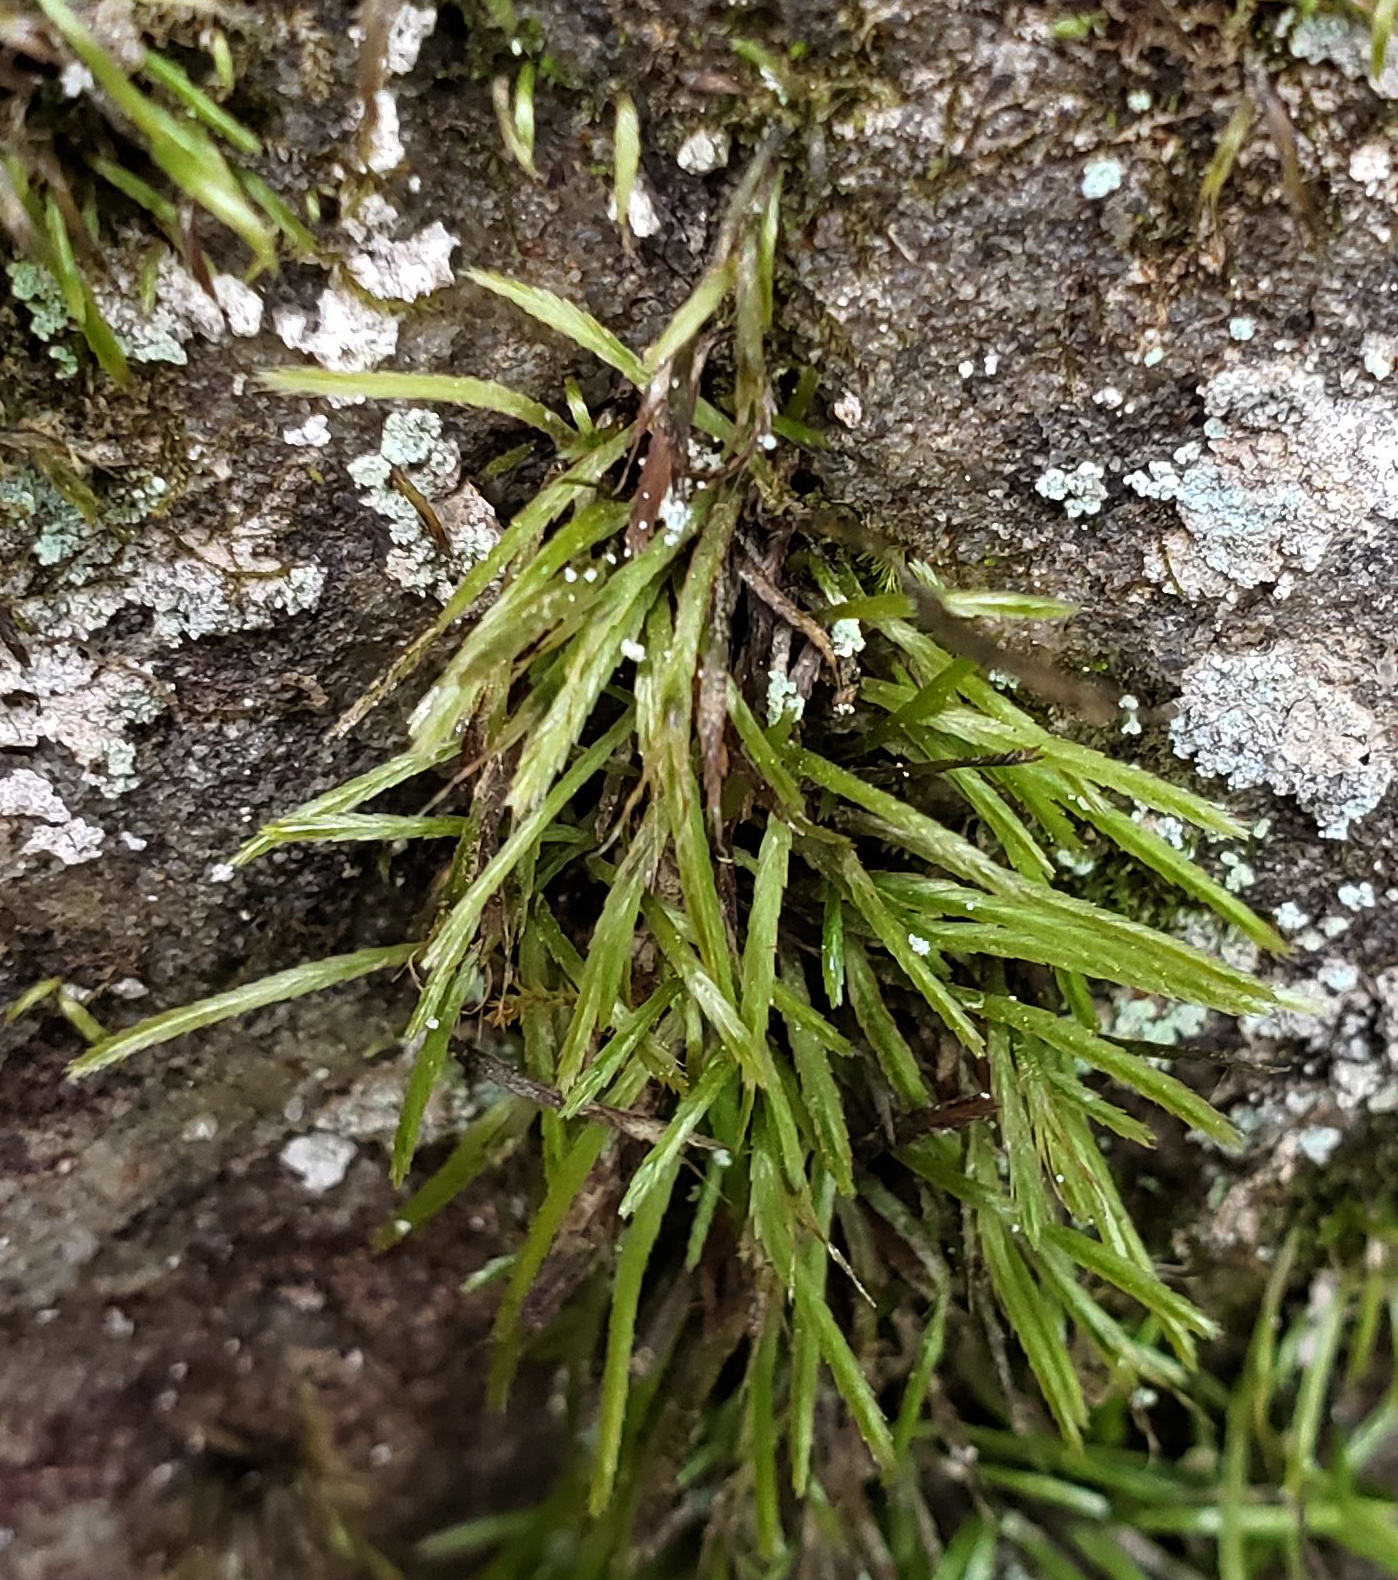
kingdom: Plantae
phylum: Bryophyta
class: Bryopsida
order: Bryoxiphiales
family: Bryoxiphiaceae
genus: Bryoxiphium
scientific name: Bryoxiphium norvegicum
